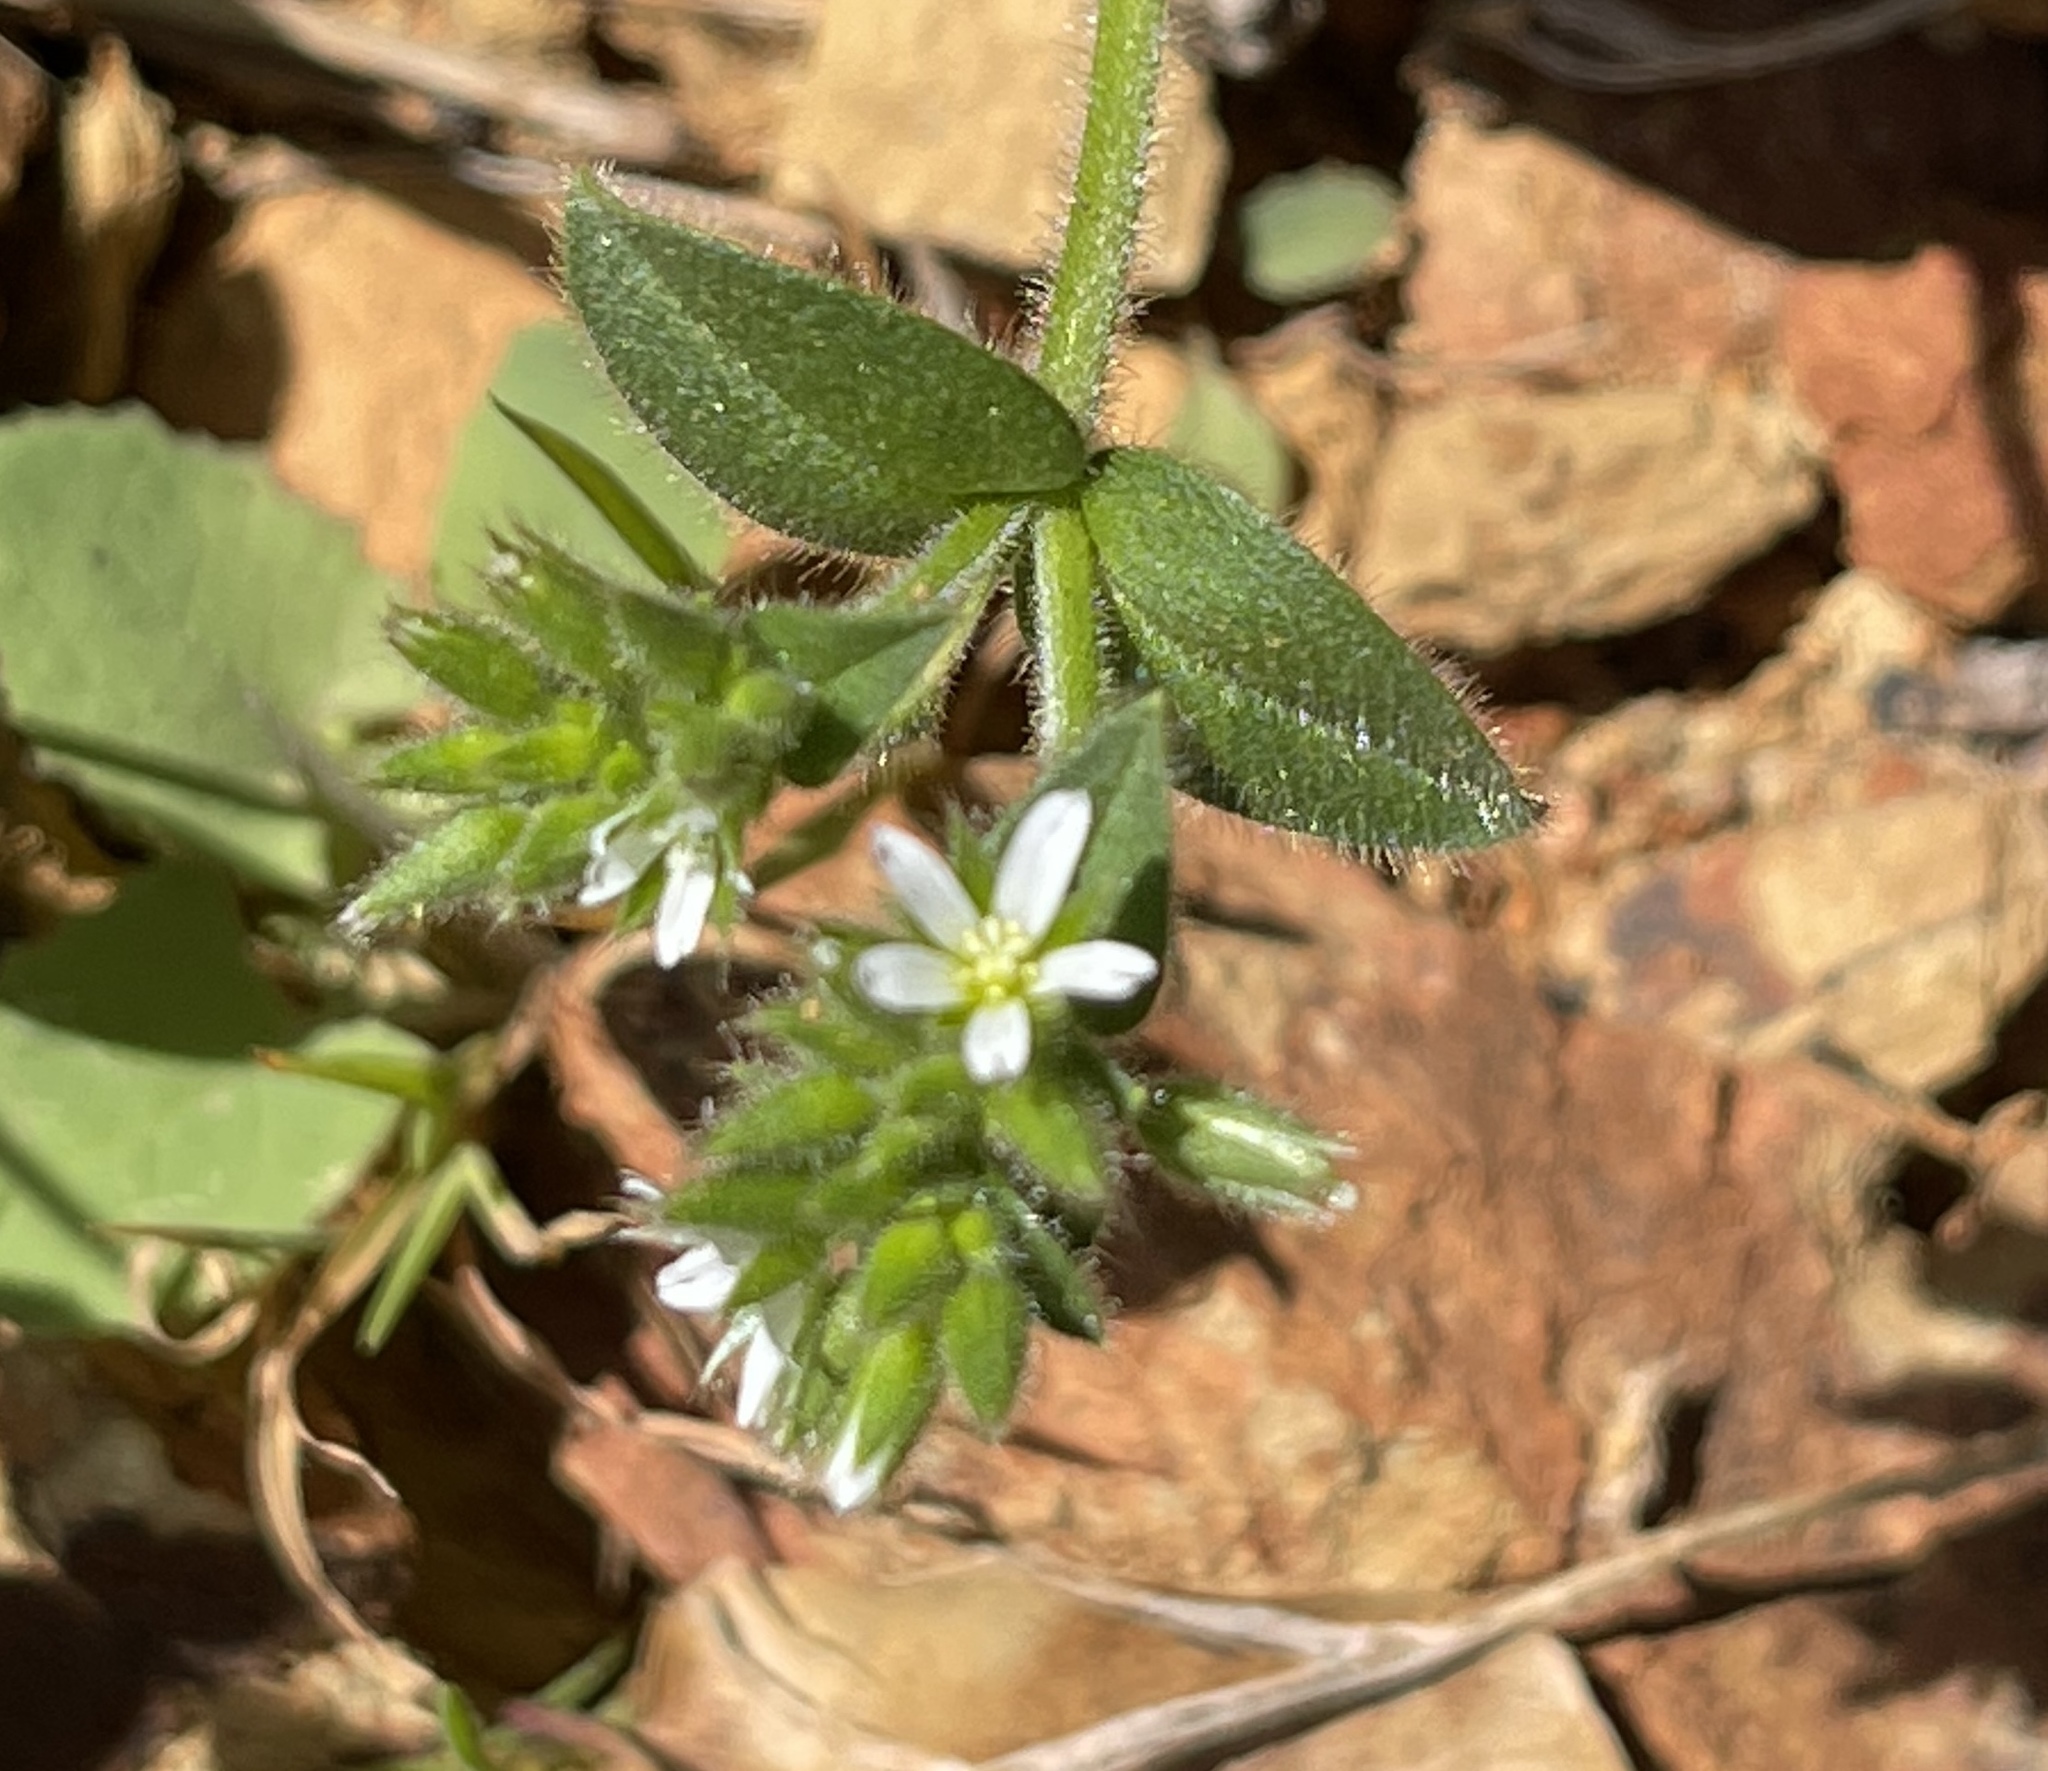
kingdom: Plantae
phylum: Tracheophyta
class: Magnoliopsida
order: Caryophyllales
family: Caryophyllaceae
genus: Cerastium
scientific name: Cerastium glomeratum
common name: Sticky chickweed
